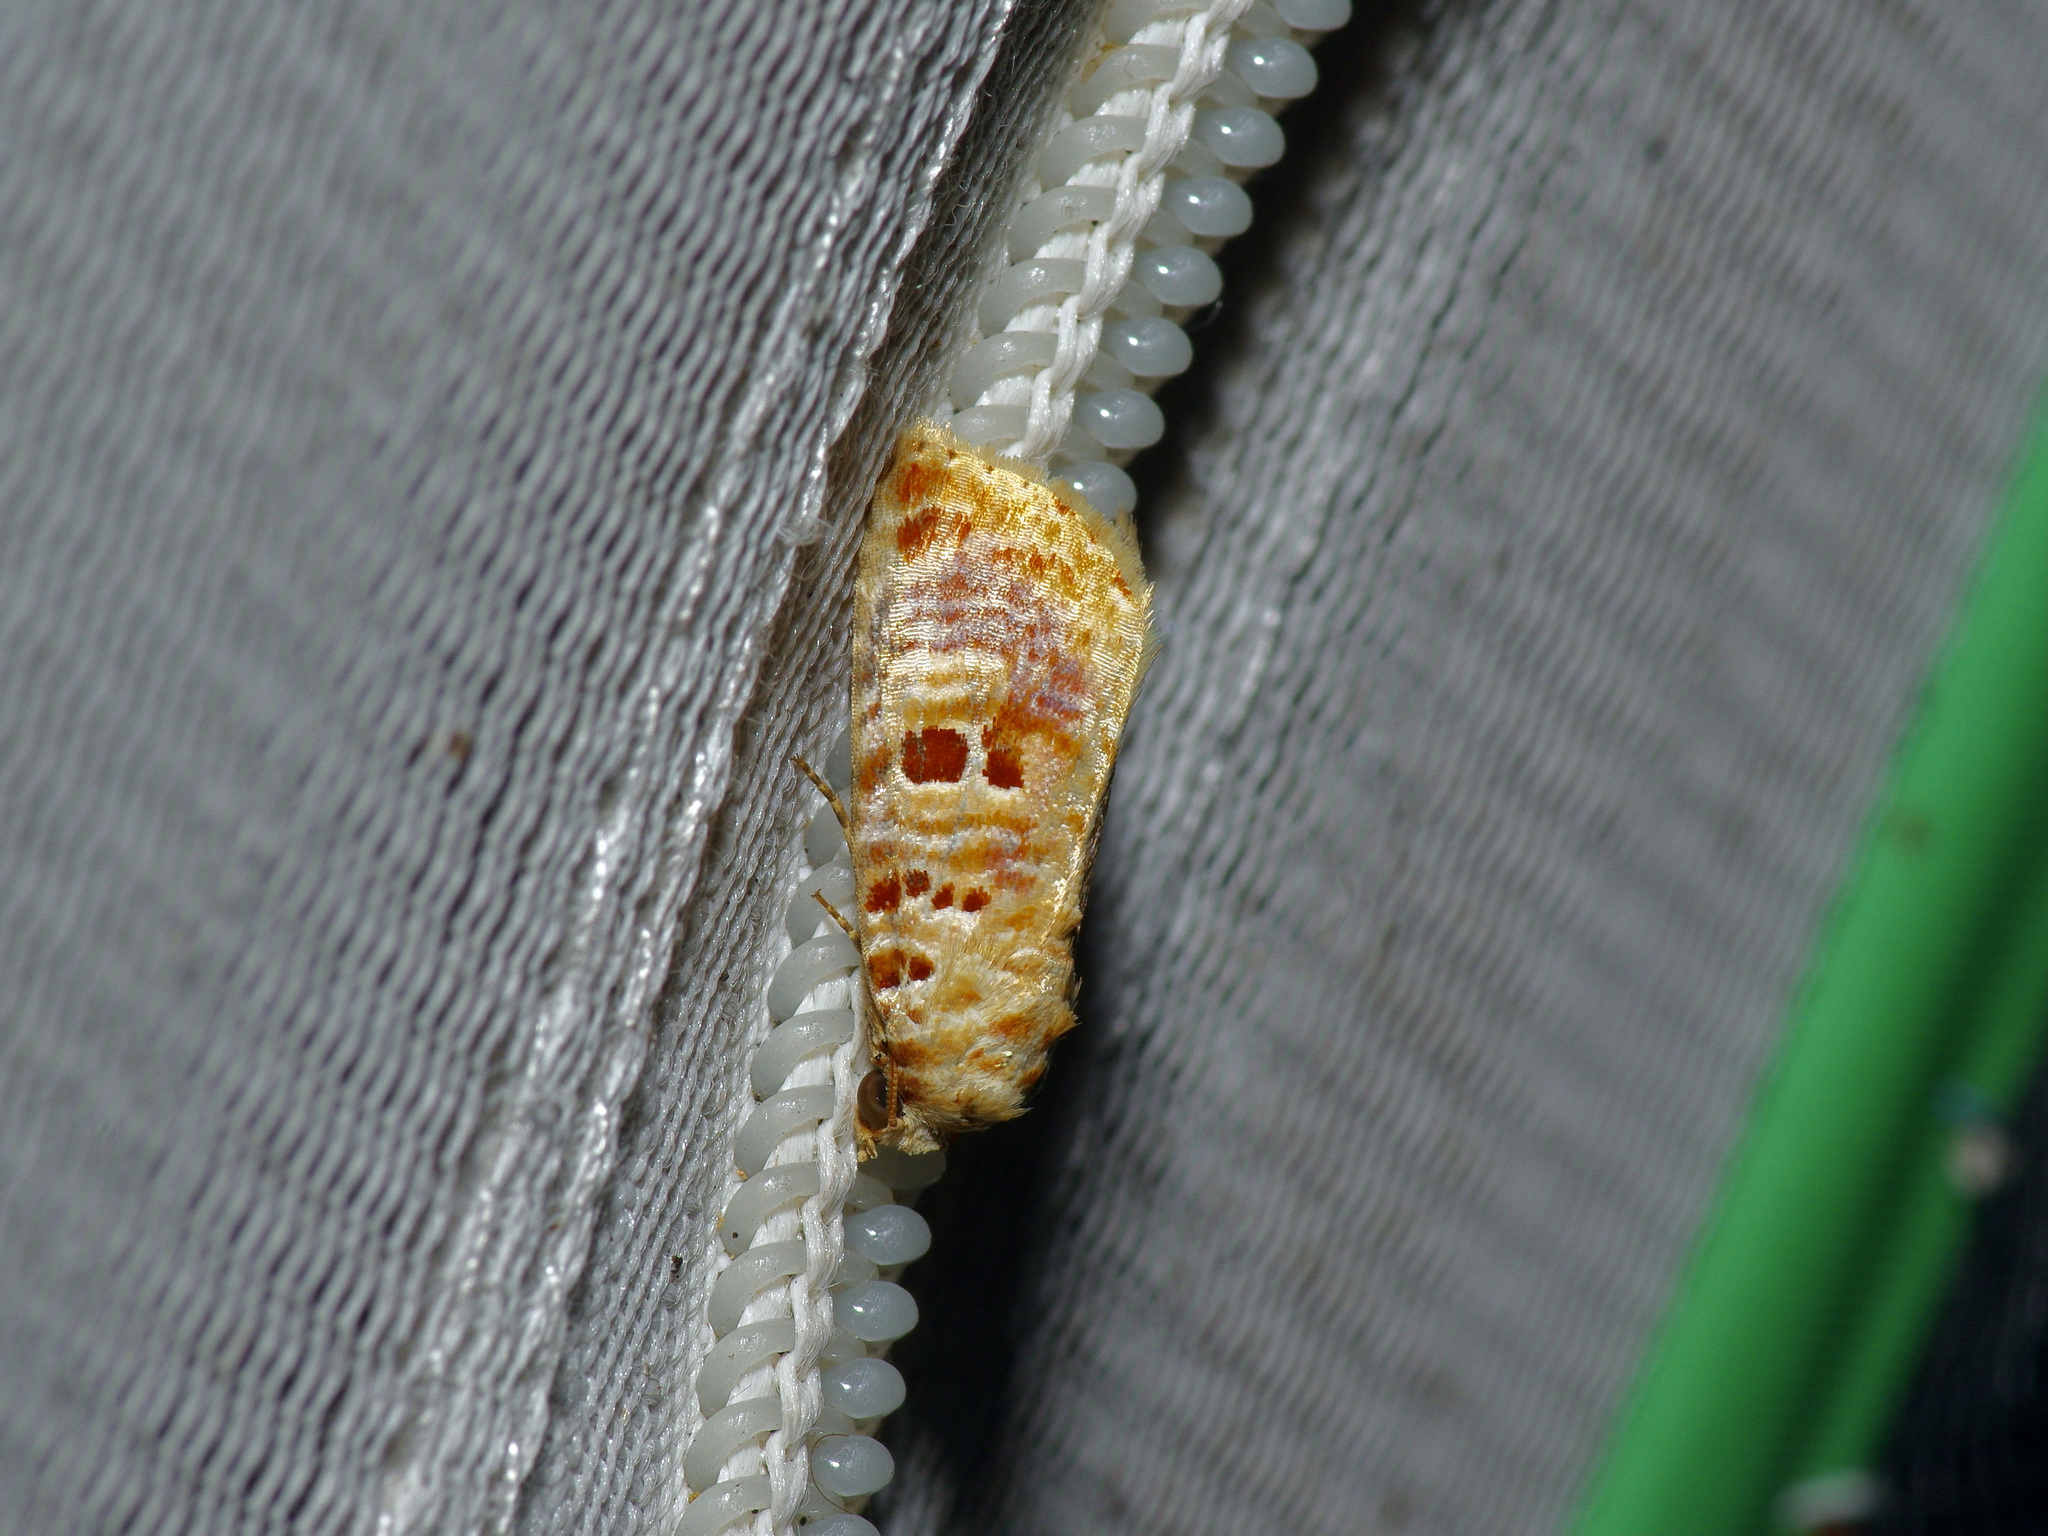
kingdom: Animalia
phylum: Arthropoda
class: Insecta
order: Lepidoptera
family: Noctuidae
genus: Diastema
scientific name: Diastema tigris
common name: Lantana moth
